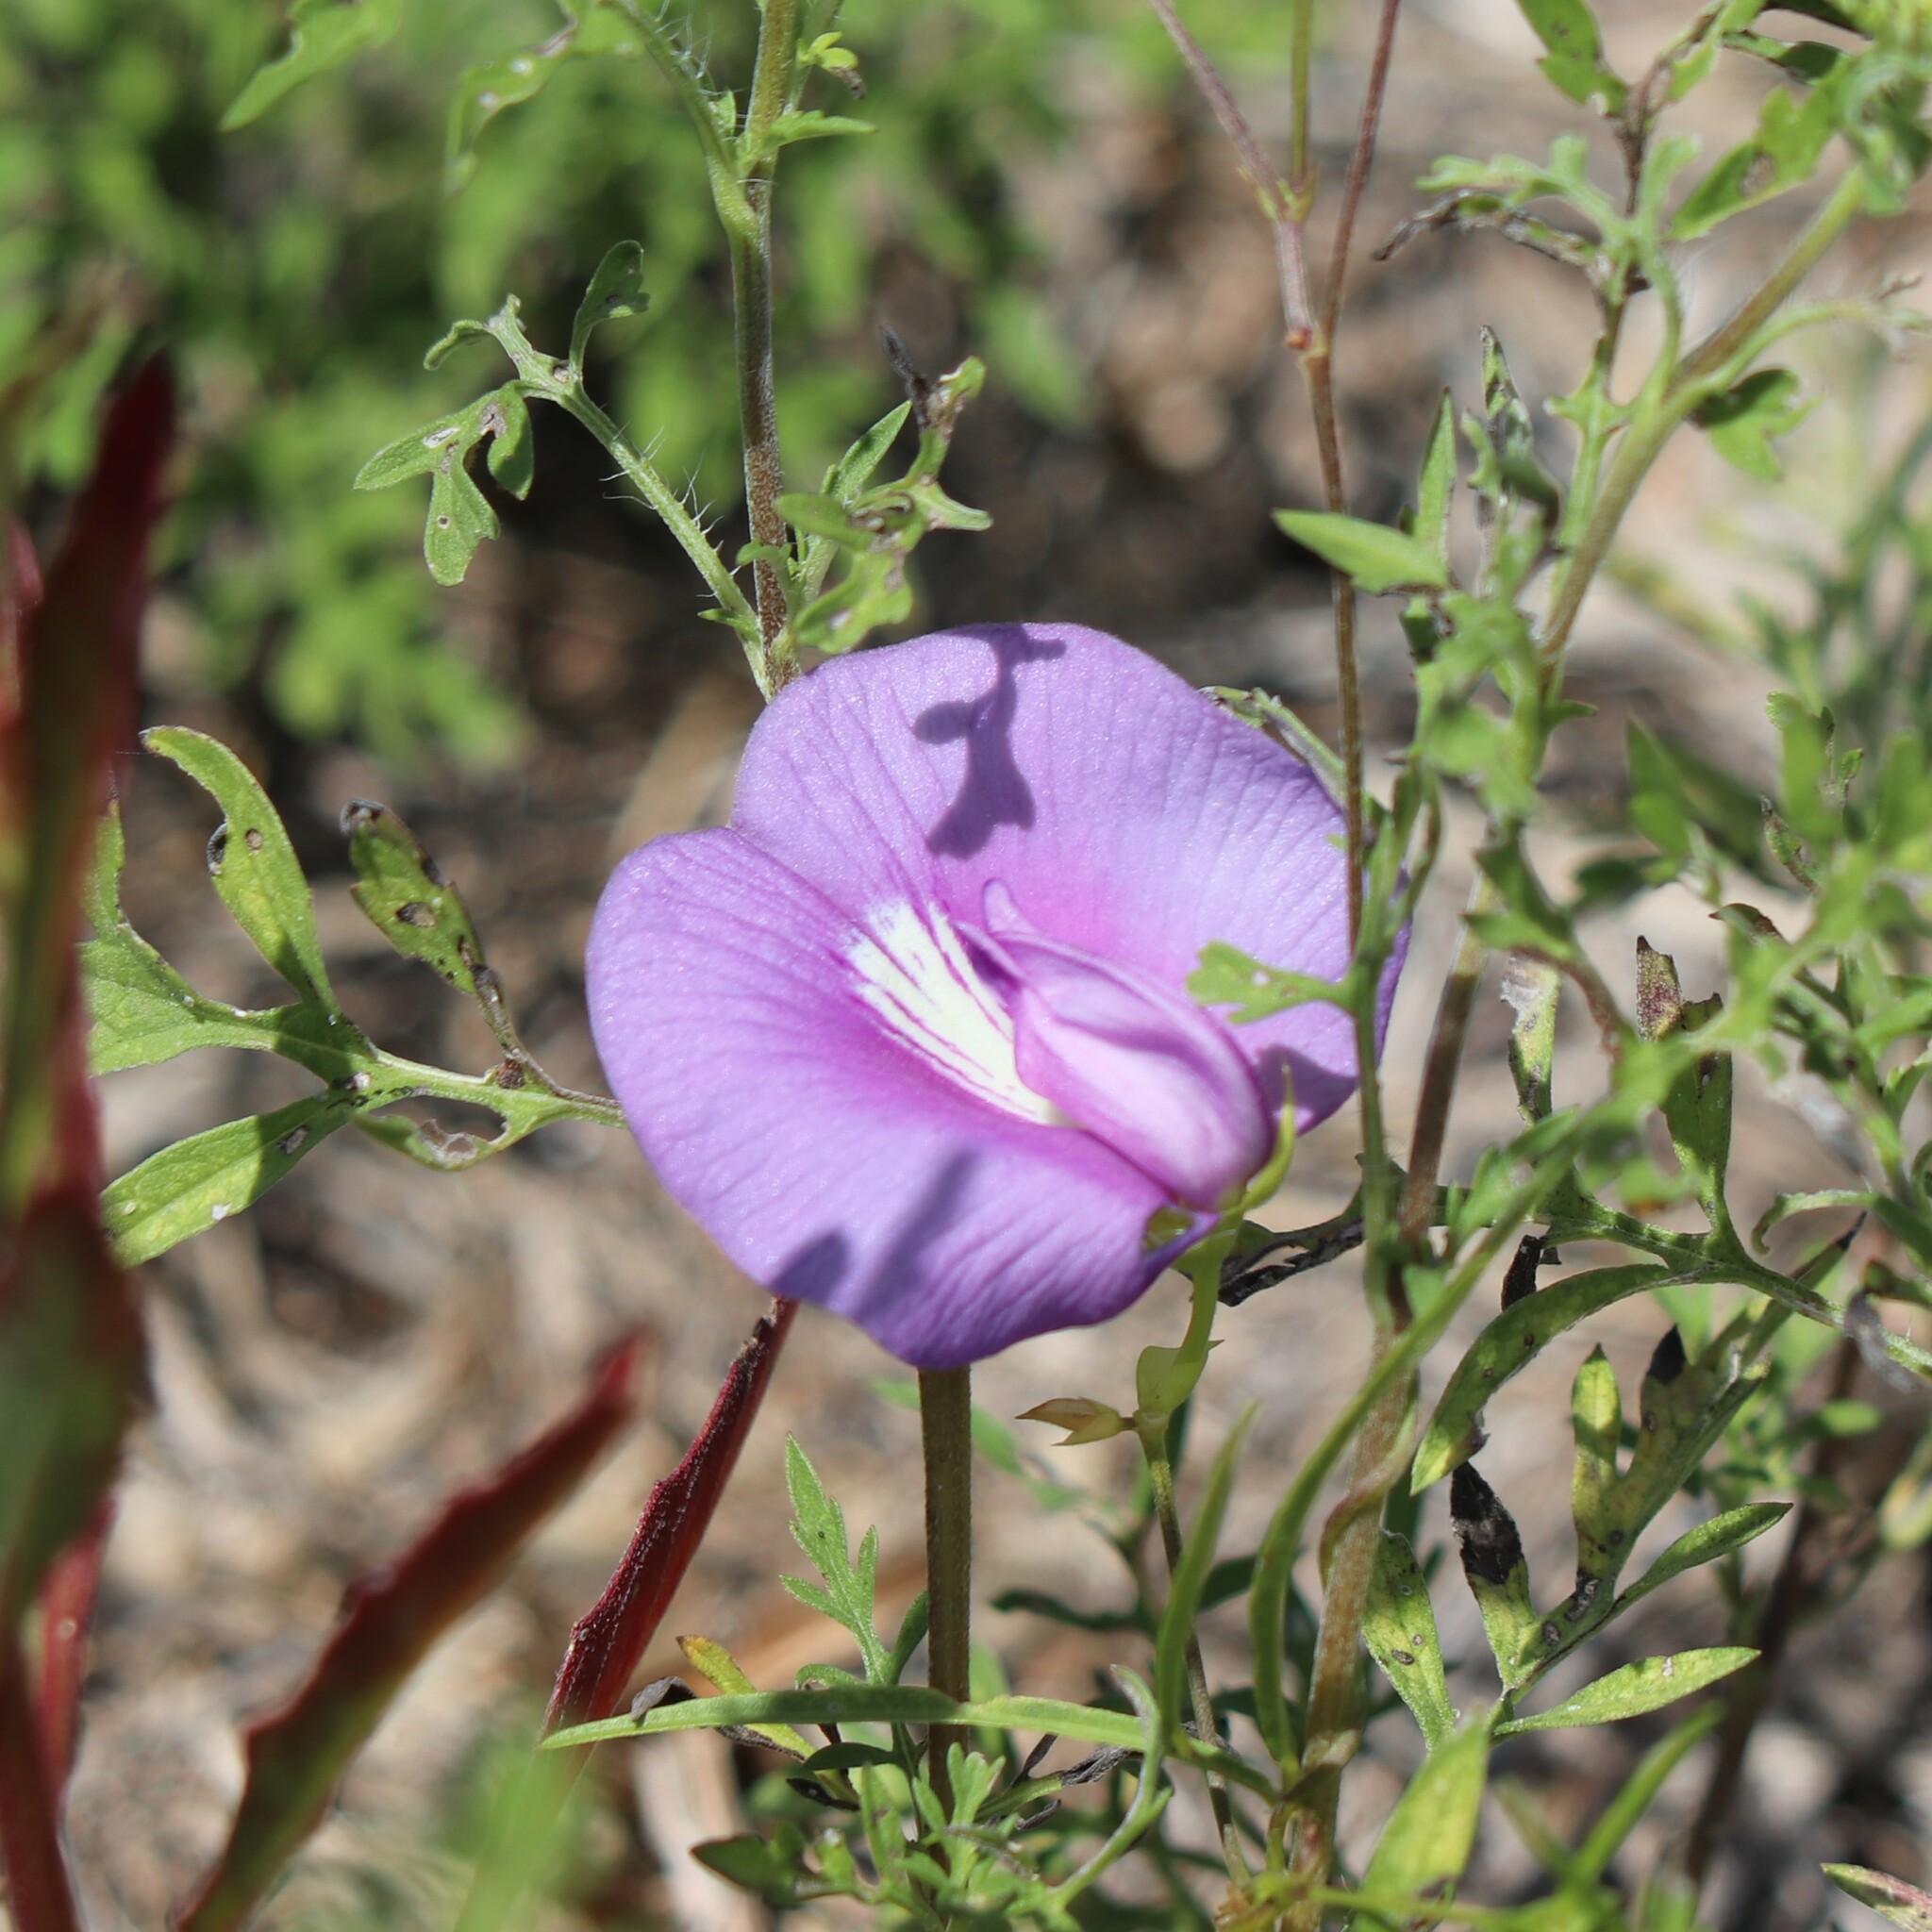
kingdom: Plantae
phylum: Tracheophyta
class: Magnoliopsida
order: Fabales
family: Fabaceae
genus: Centrosema
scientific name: Centrosema virginianum
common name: Butterfly-pea
